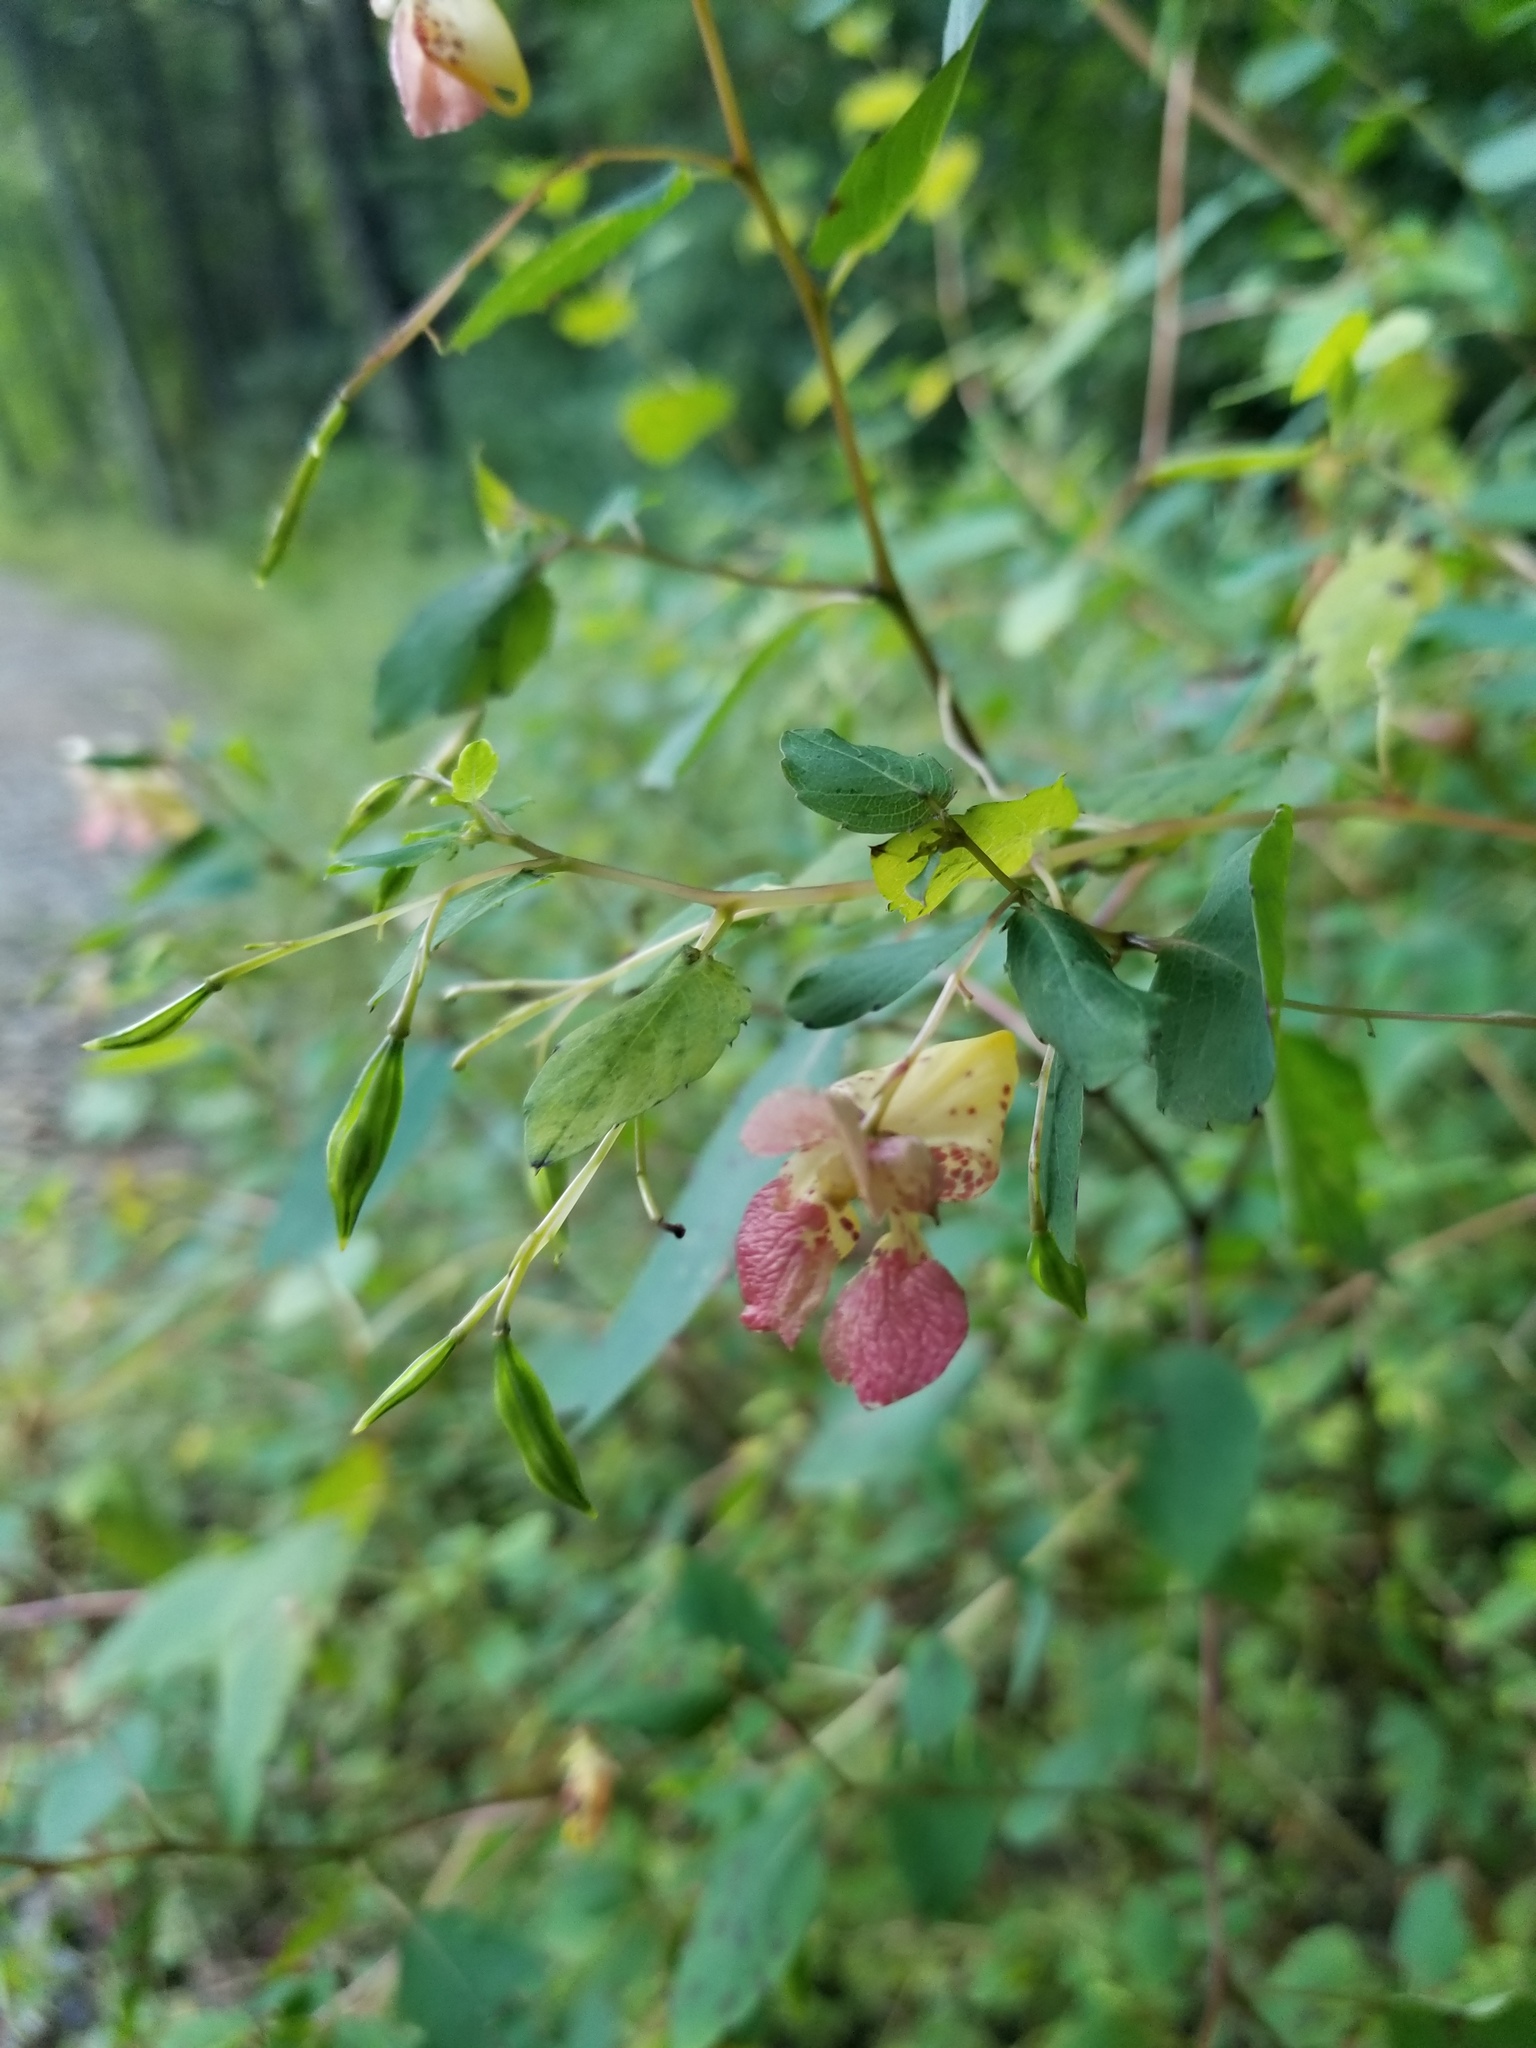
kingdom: Plantae
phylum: Tracheophyta
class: Magnoliopsida
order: Ericales
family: Balsaminaceae
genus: Impatiens
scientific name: Impatiens capensis
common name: Orange balsam
